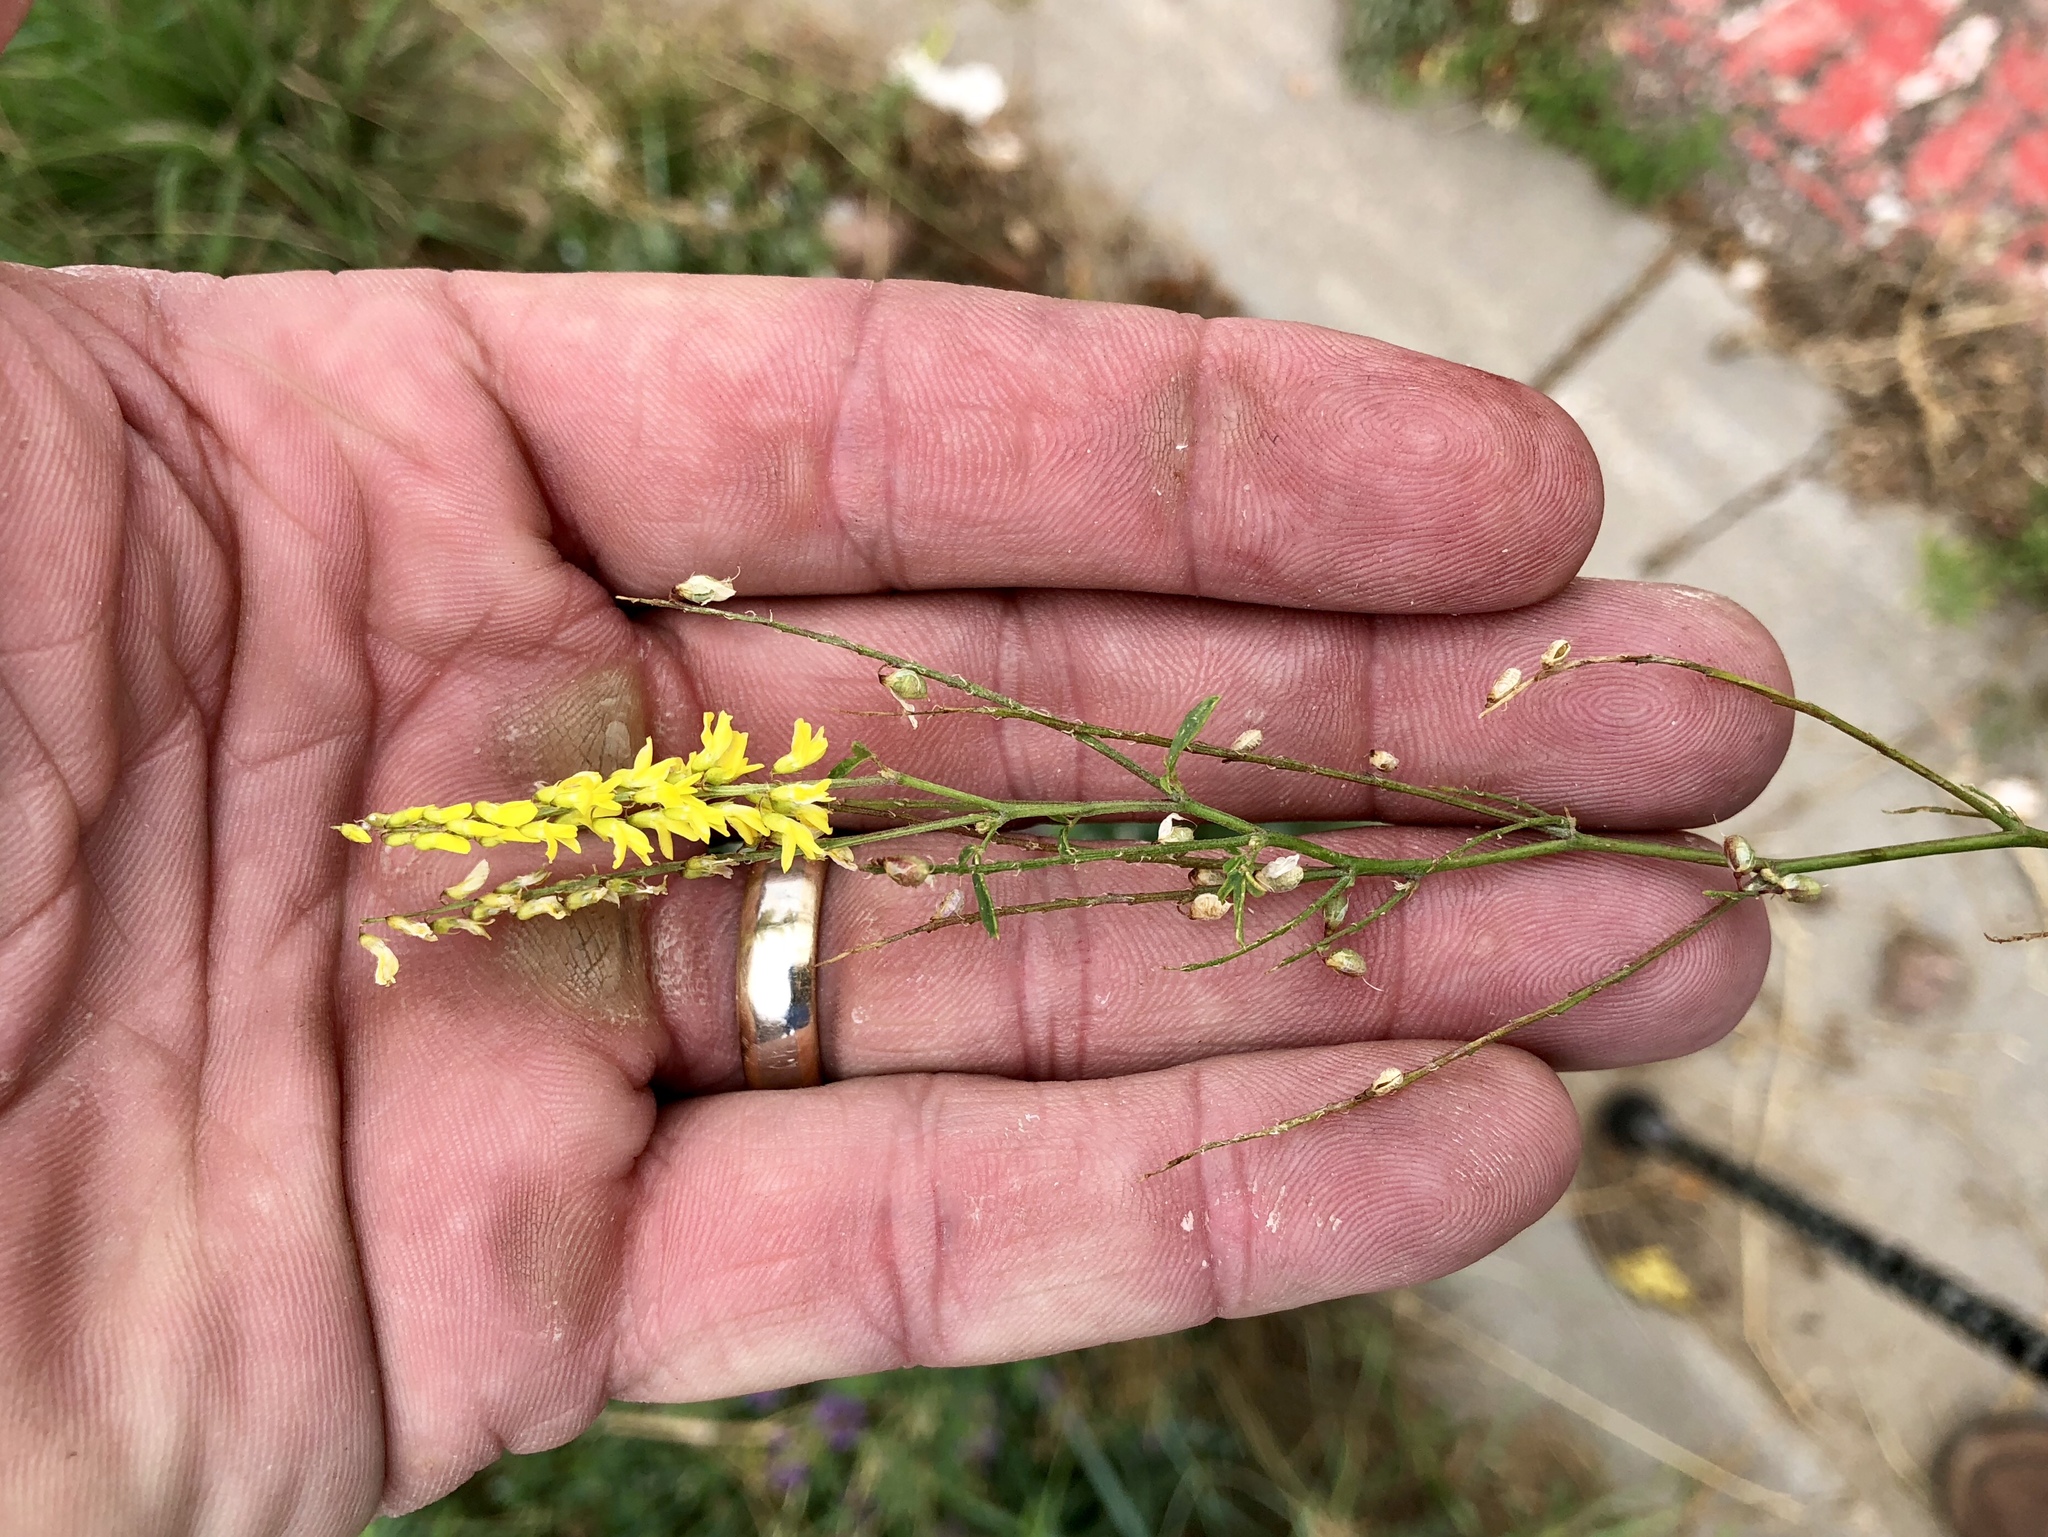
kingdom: Plantae
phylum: Tracheophyta
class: Magnoliopsida
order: Fabales
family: Fabaceae
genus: Melilotus
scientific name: Melilotus officinalis
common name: Sweetclover
